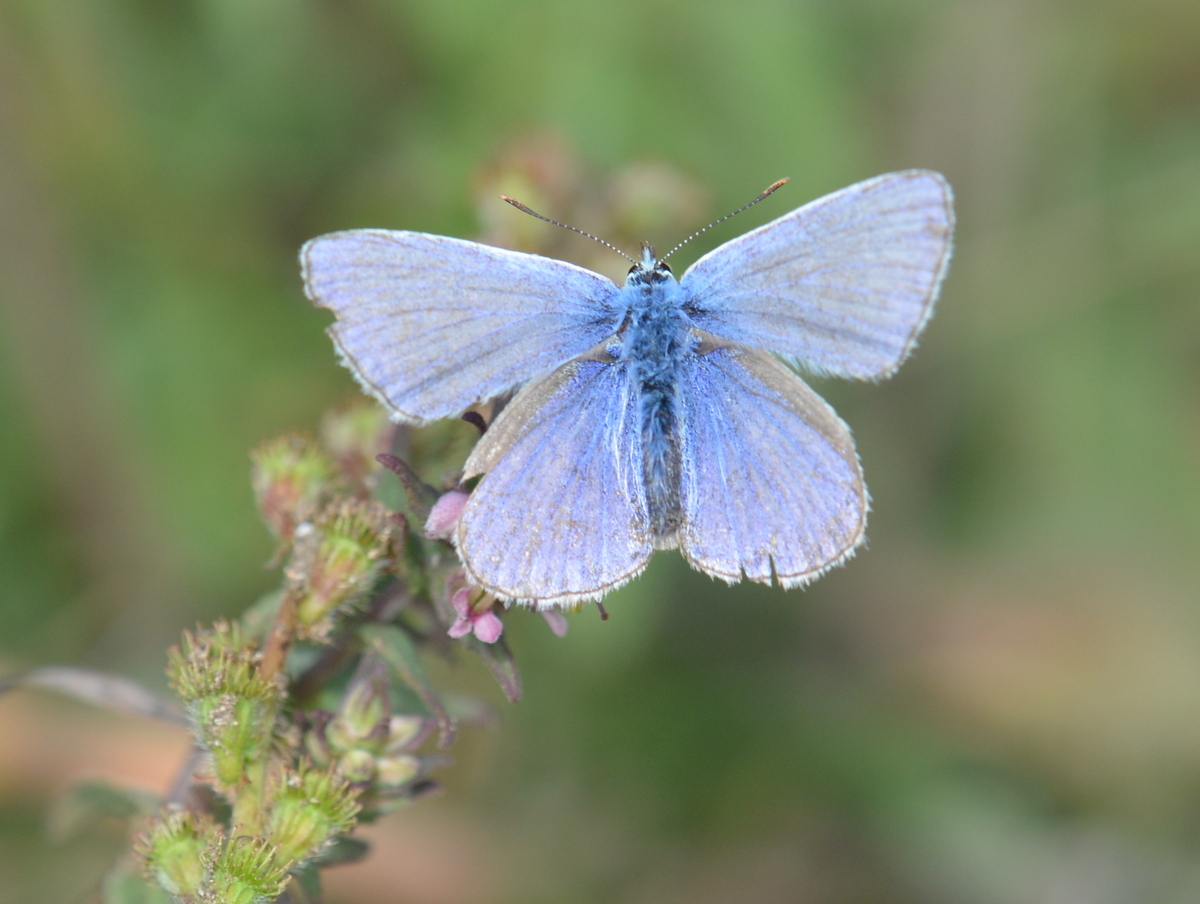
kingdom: Animalia
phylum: Arthropoda
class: Insecta
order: Lepidoptera
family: Lycaenidae
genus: Polyommatus
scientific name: Polyommatus icarus
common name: Common blue
